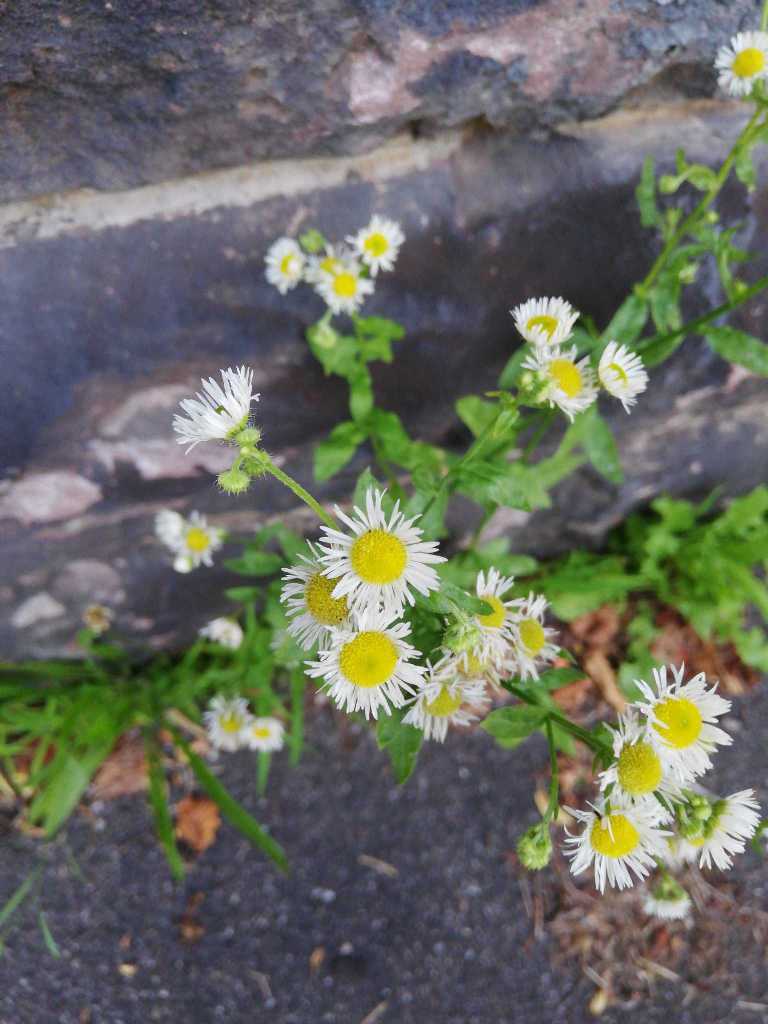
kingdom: Plantae
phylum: Tracheophyta
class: Magnoliopsida
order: Asterales
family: Asteraceae
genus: Erigeron
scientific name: Erigeron annuus
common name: Tall fleabane
